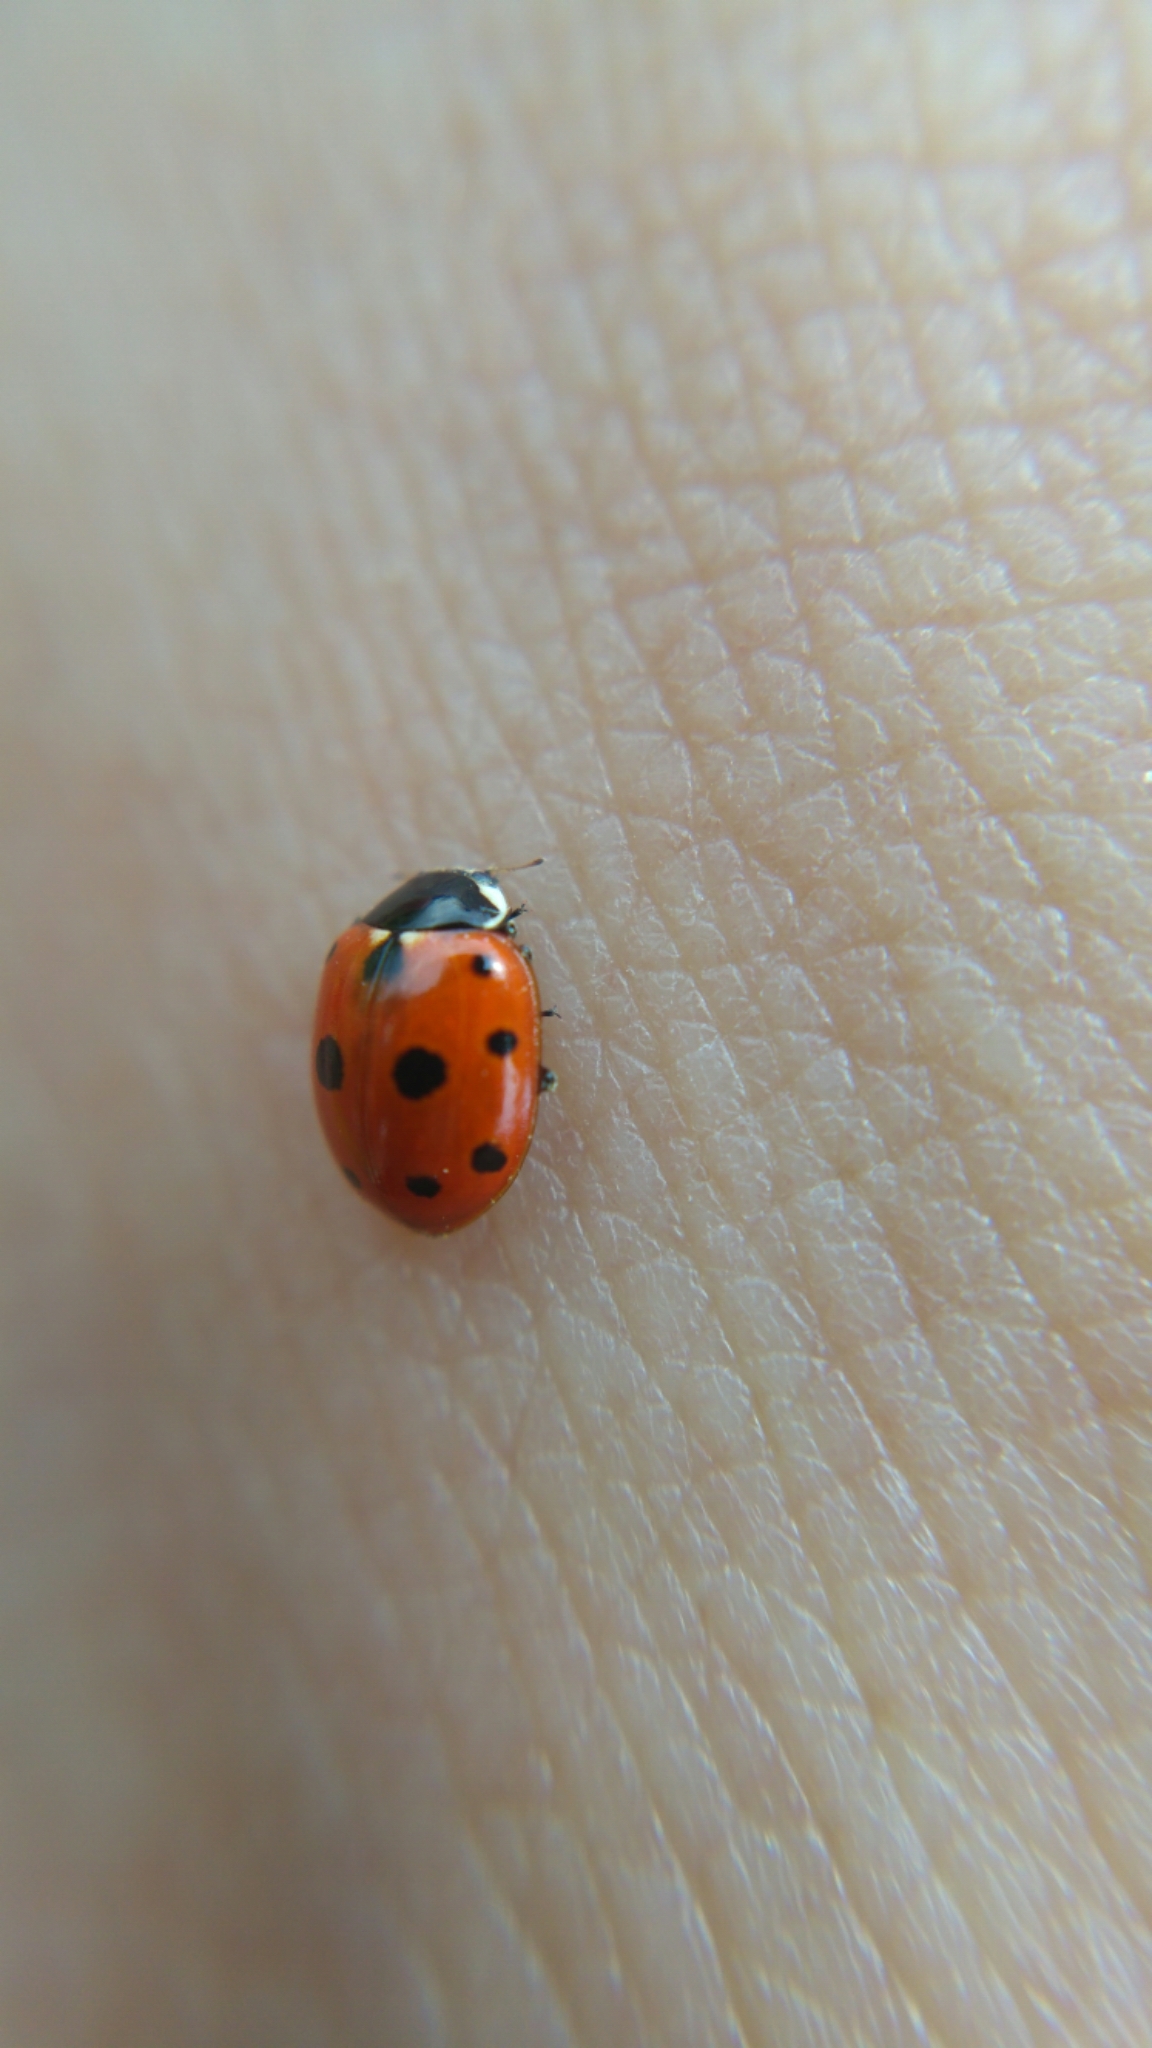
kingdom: Animalia
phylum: Arthropoda
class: Insecta
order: Coleoptera
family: Coccinellidae
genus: Coccinella
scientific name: Coccinella undecimpunctata
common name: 11-spot ladybird
